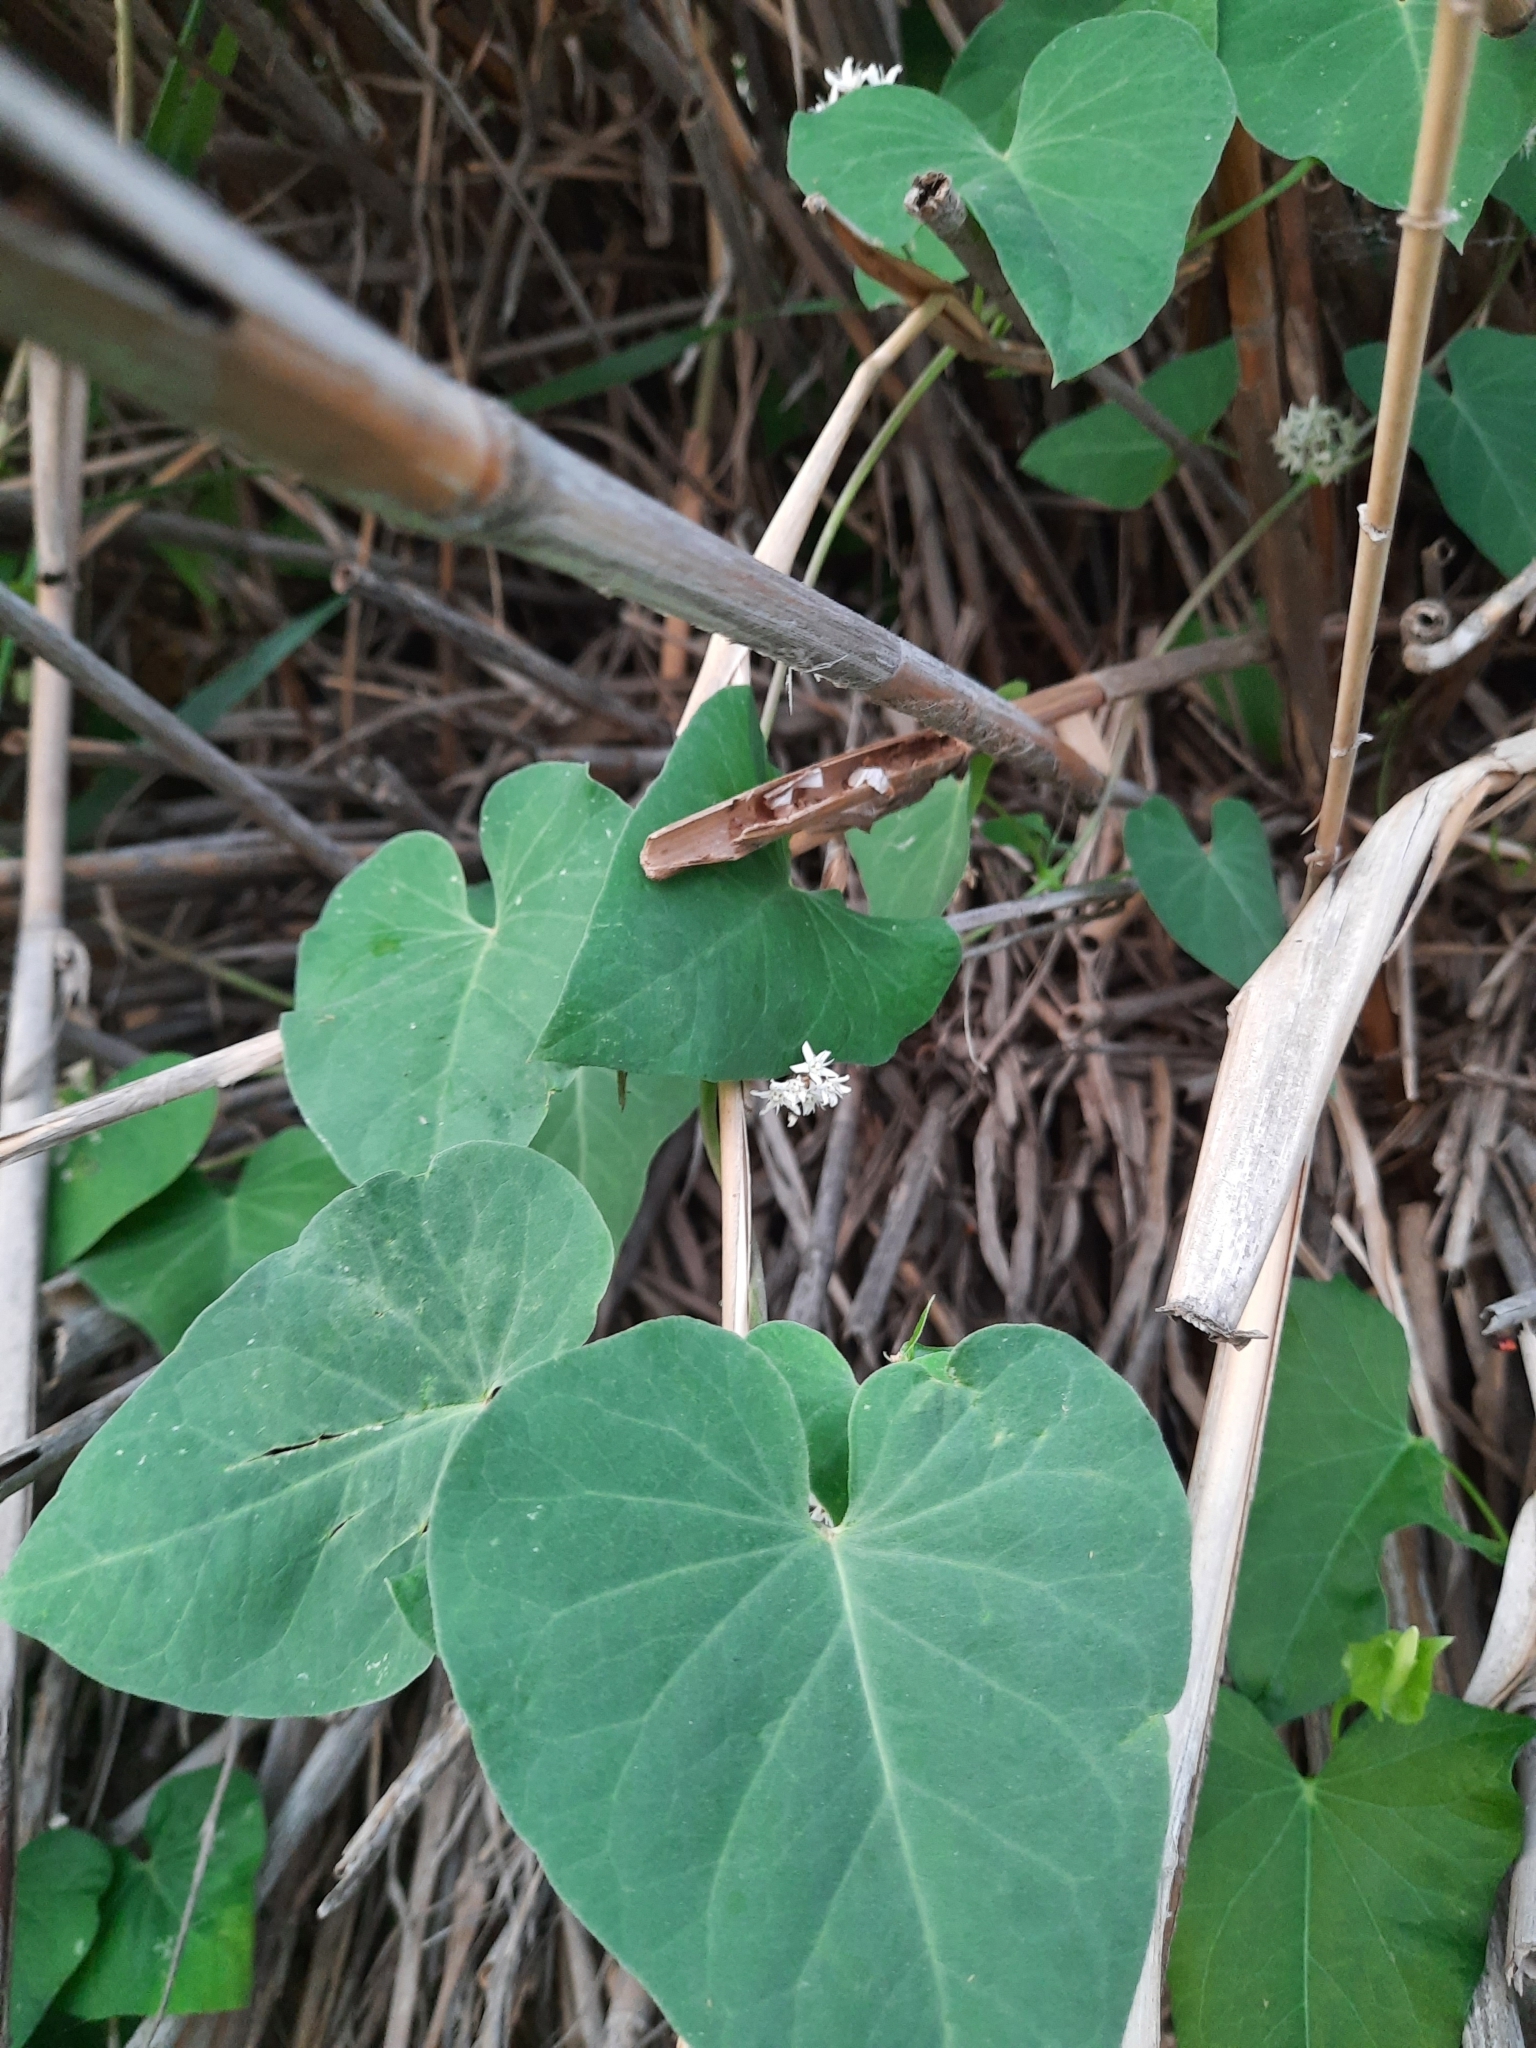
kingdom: Plantae
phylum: Tracheophyta
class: Magnoliopsida
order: Gentianales
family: Apocynaceae
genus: Cynanchum
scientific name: Cynanchum acutum
